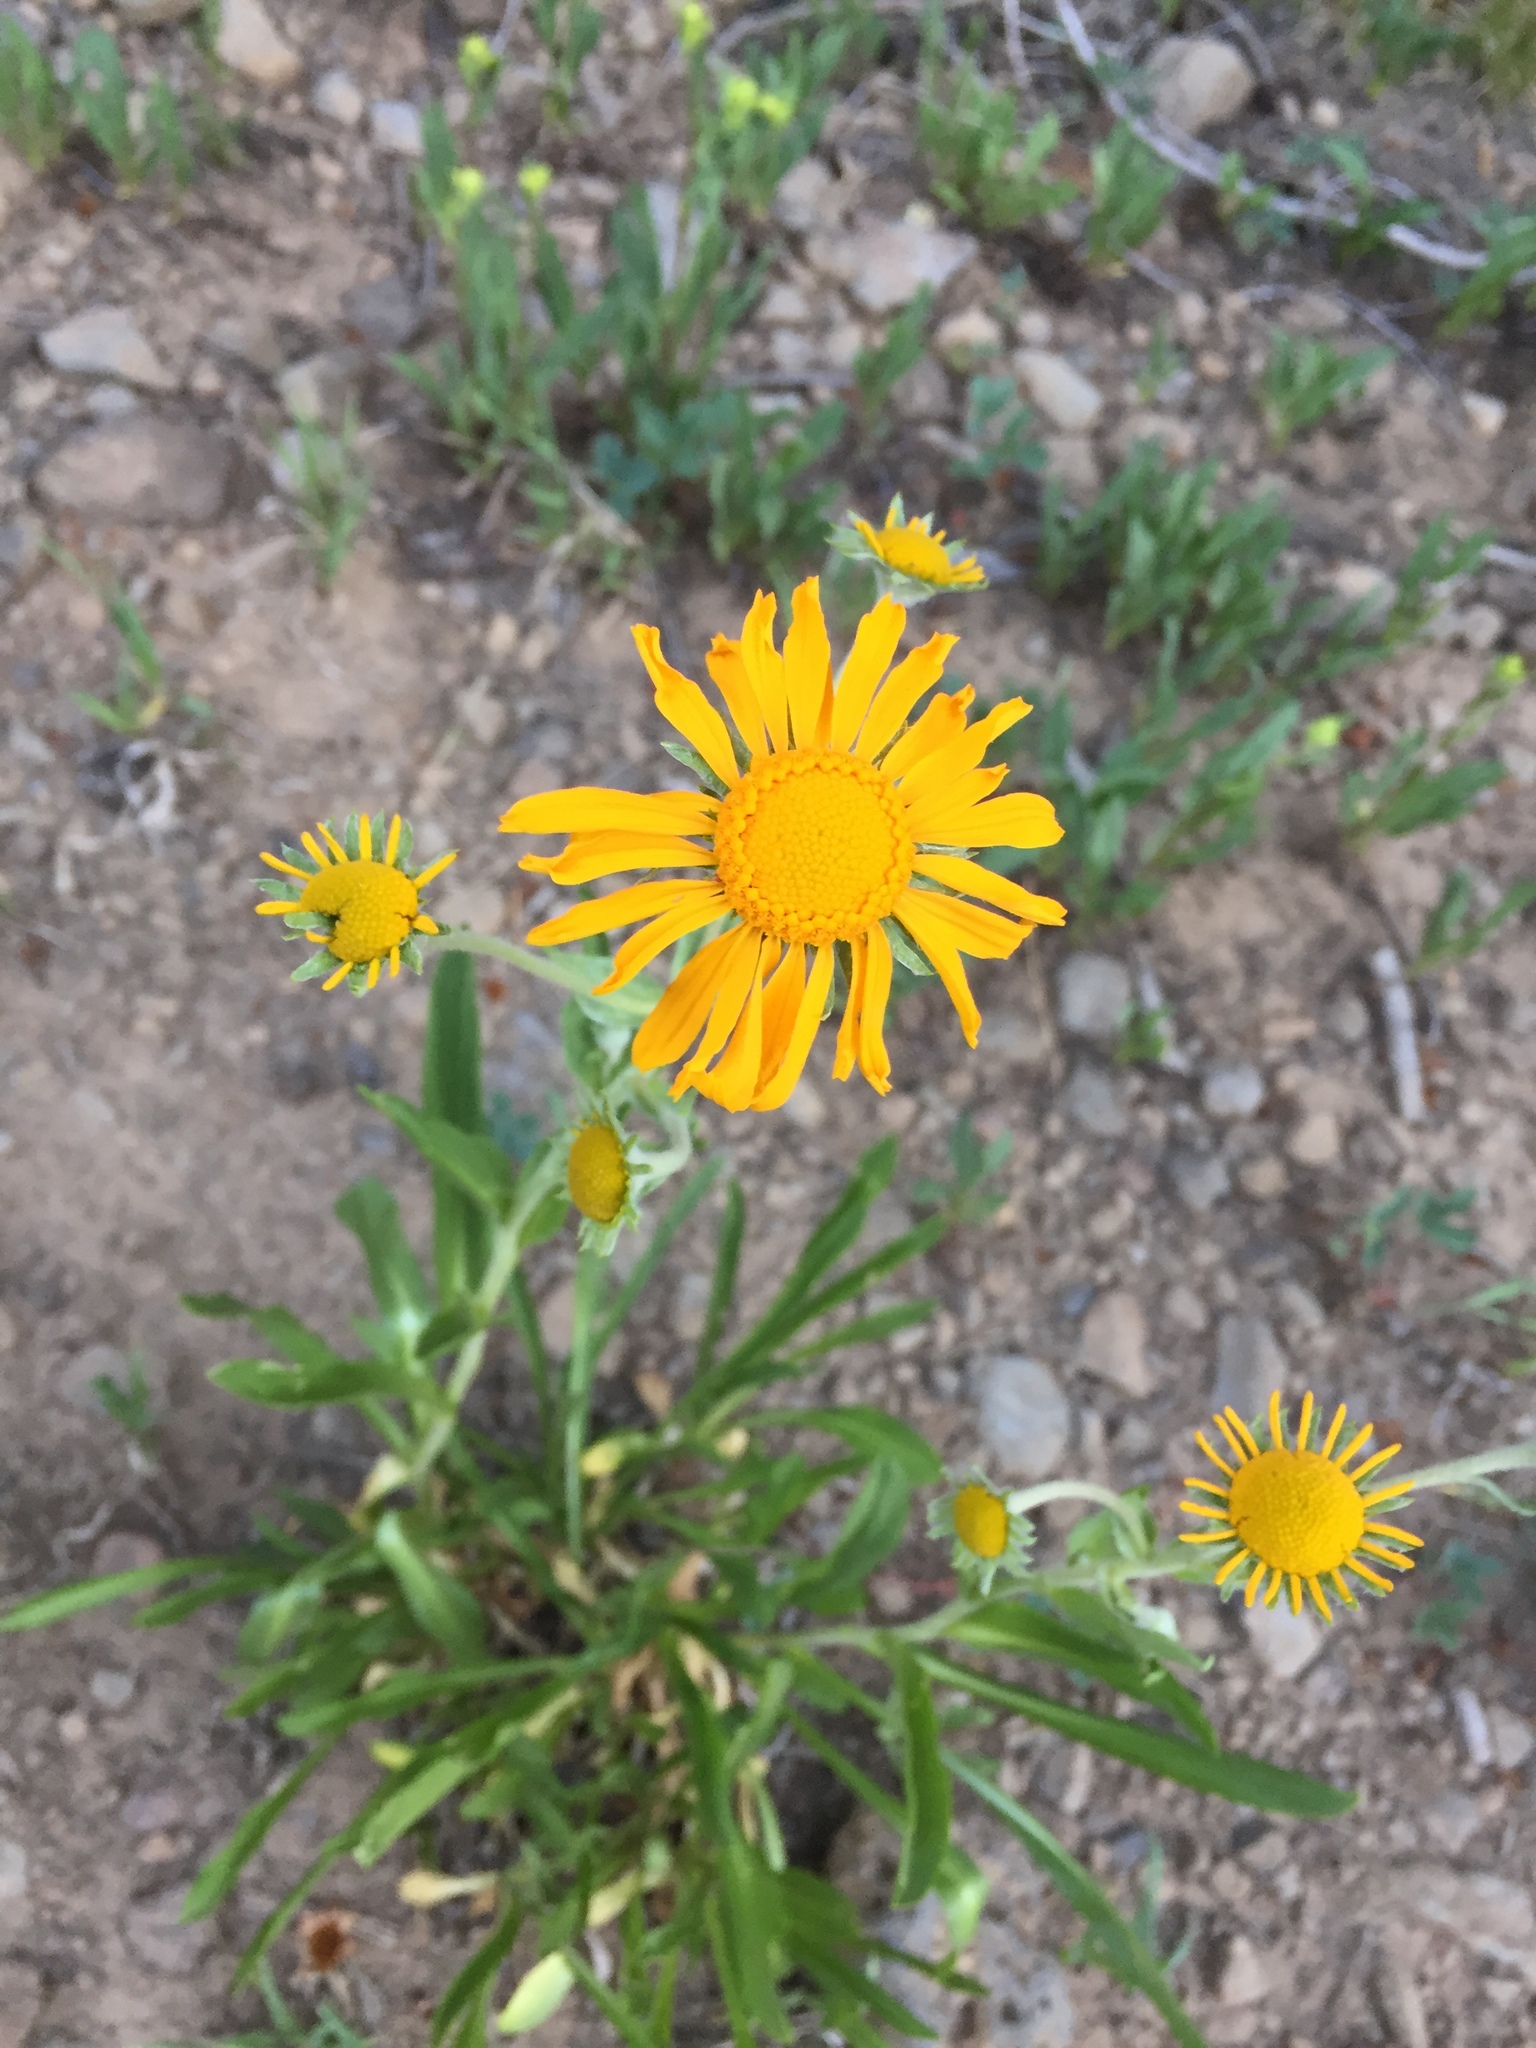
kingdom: Plantae
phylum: Tracheophyta
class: Magnoliopsida
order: Asterales
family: Asteraceae
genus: Hymenoxys
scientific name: Hymenoxys hoopesii
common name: Orange-sneezeweed
